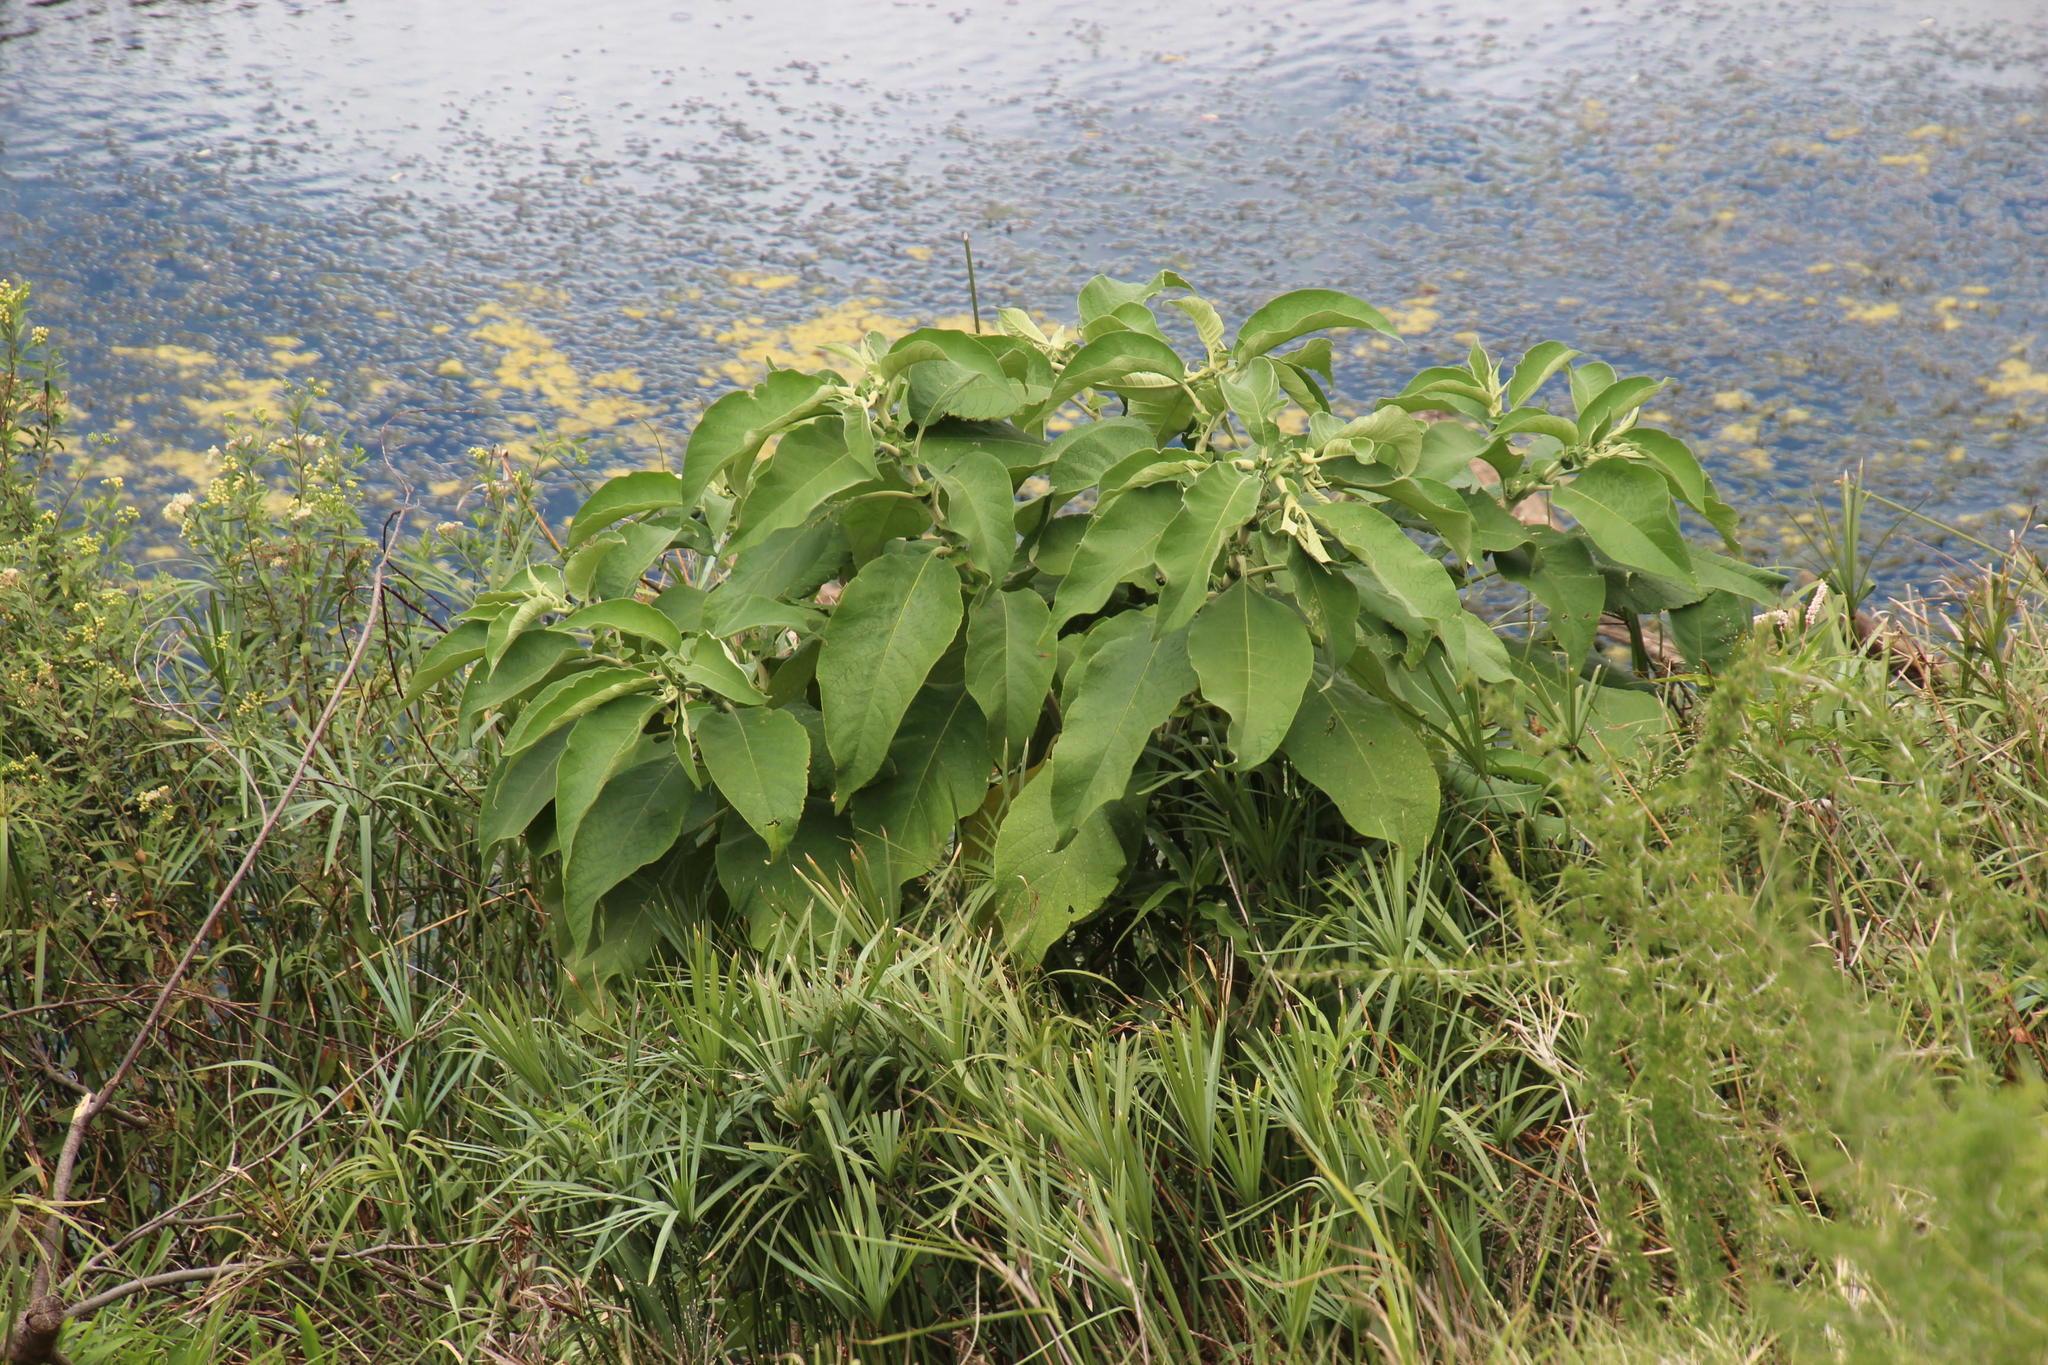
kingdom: Plantae
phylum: Tracheophyta
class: Magnoliopsida
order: Solanales
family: Solanaceae
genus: Solanum
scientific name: Solanum mauritianum
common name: Earleaf nightshade
